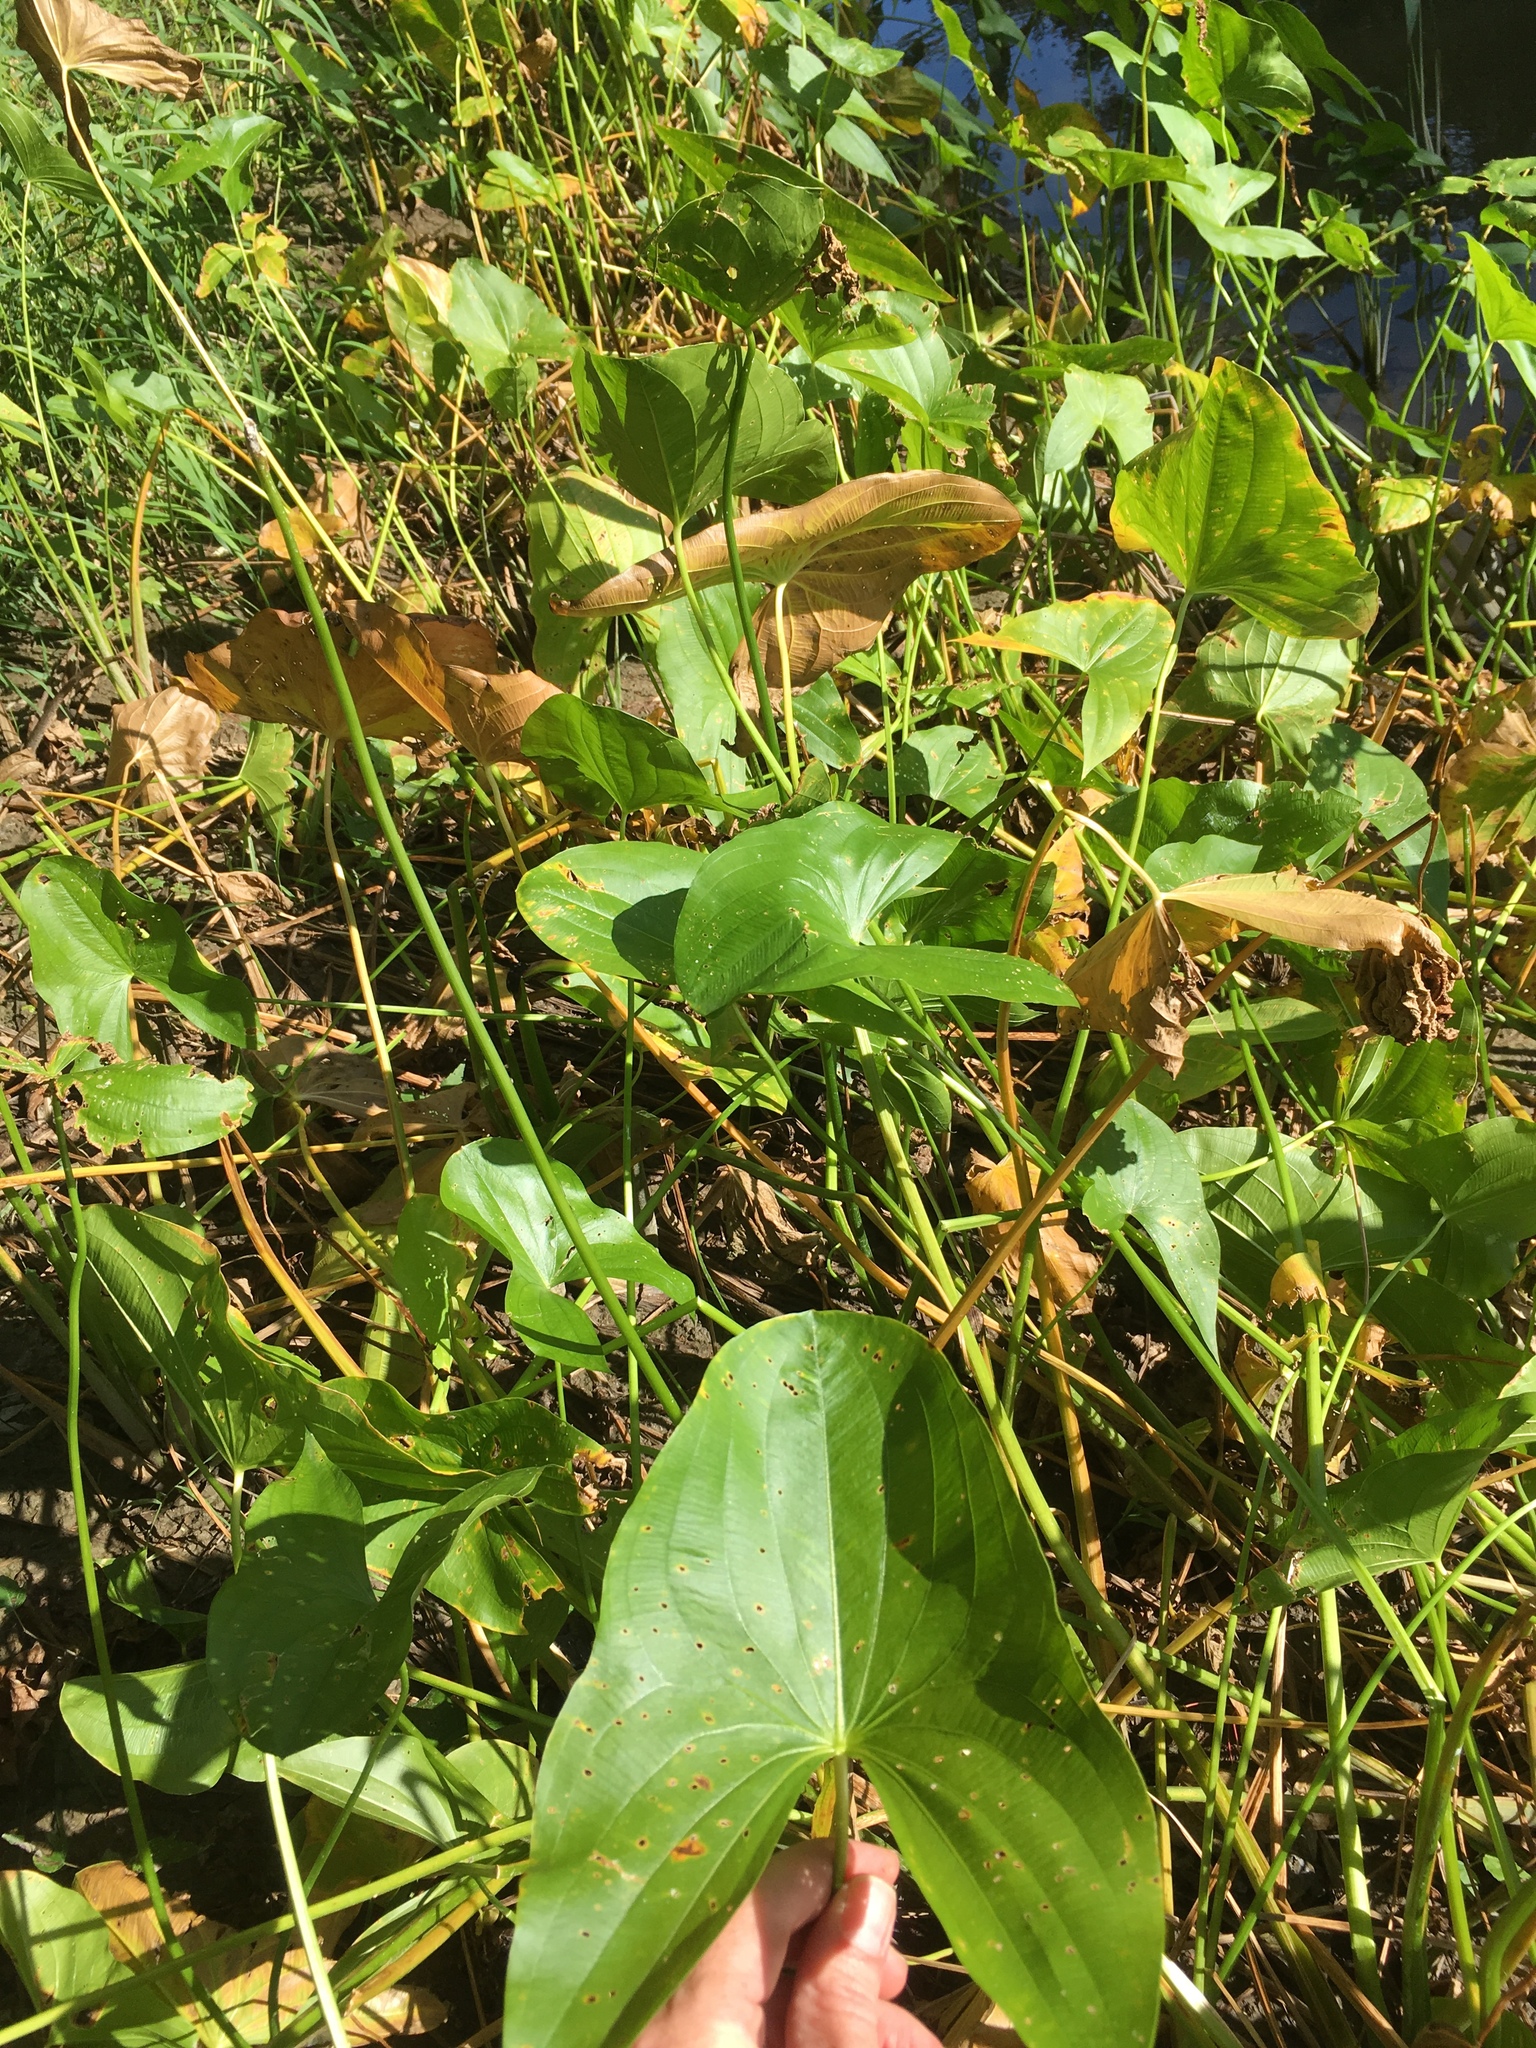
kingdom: Plantae
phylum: Tracheophyta
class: Liliopsida
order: Alismatales
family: Alismataceae
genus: Sagittaria
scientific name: Sagittaria latifolia
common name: Duck-potato
